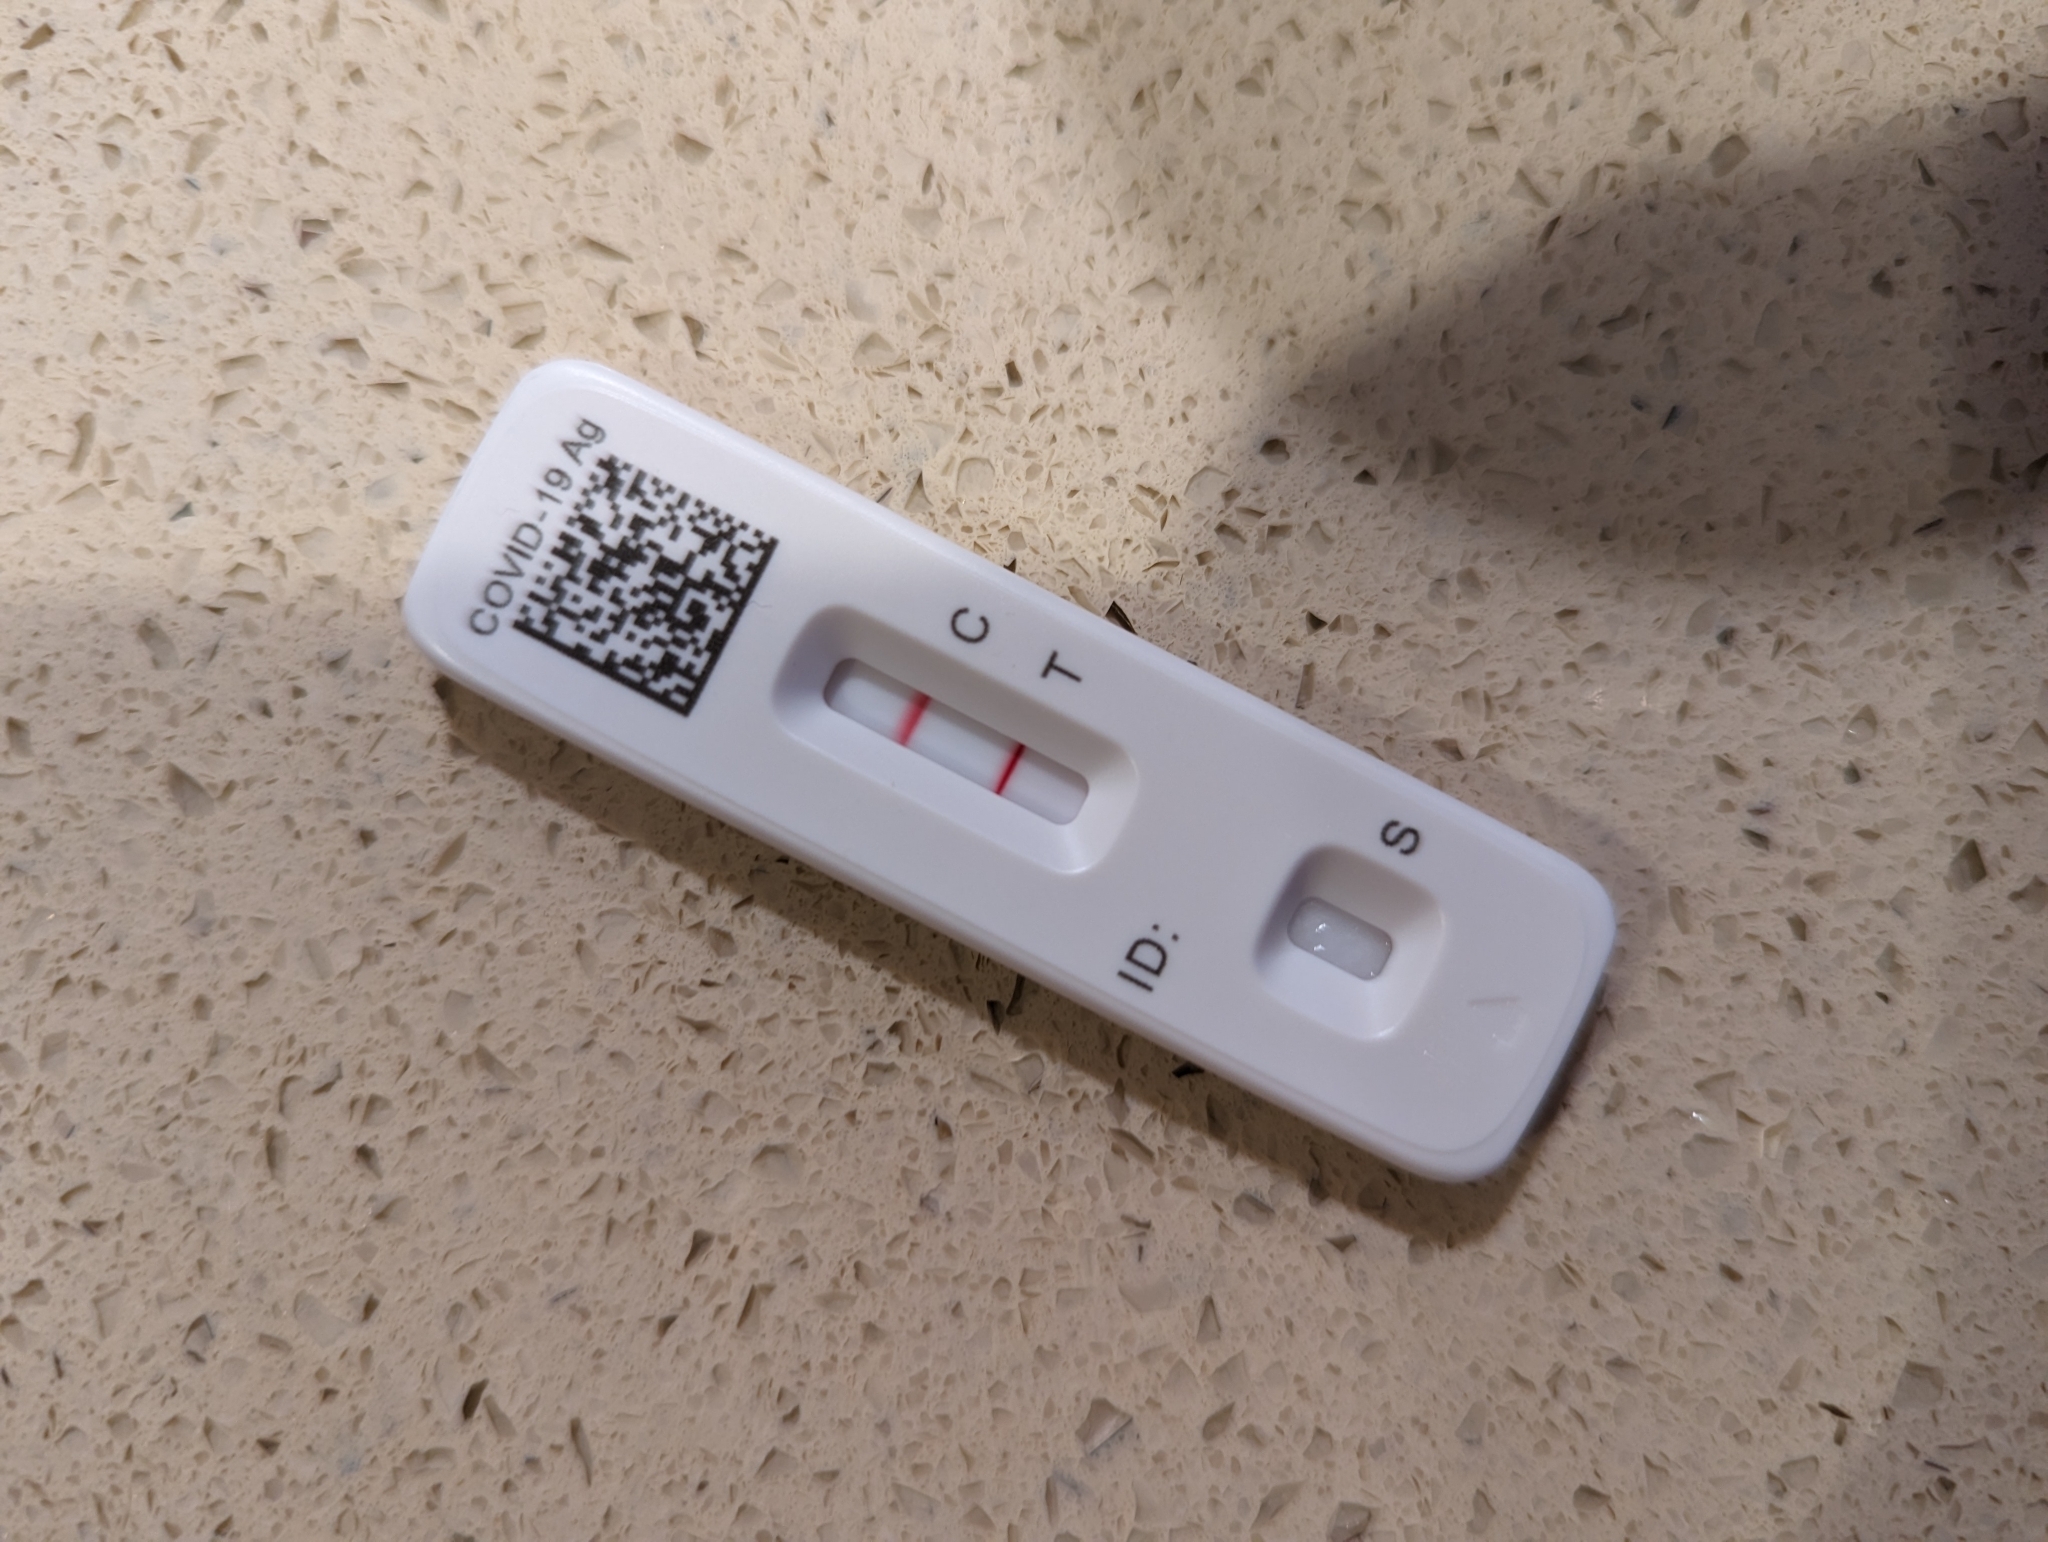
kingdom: Viruses
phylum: Pisuviricota
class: Pisoniviricetes
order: Nidovirales
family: Coronaviridae
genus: Betacoronavirus
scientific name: Betacoronavirus
